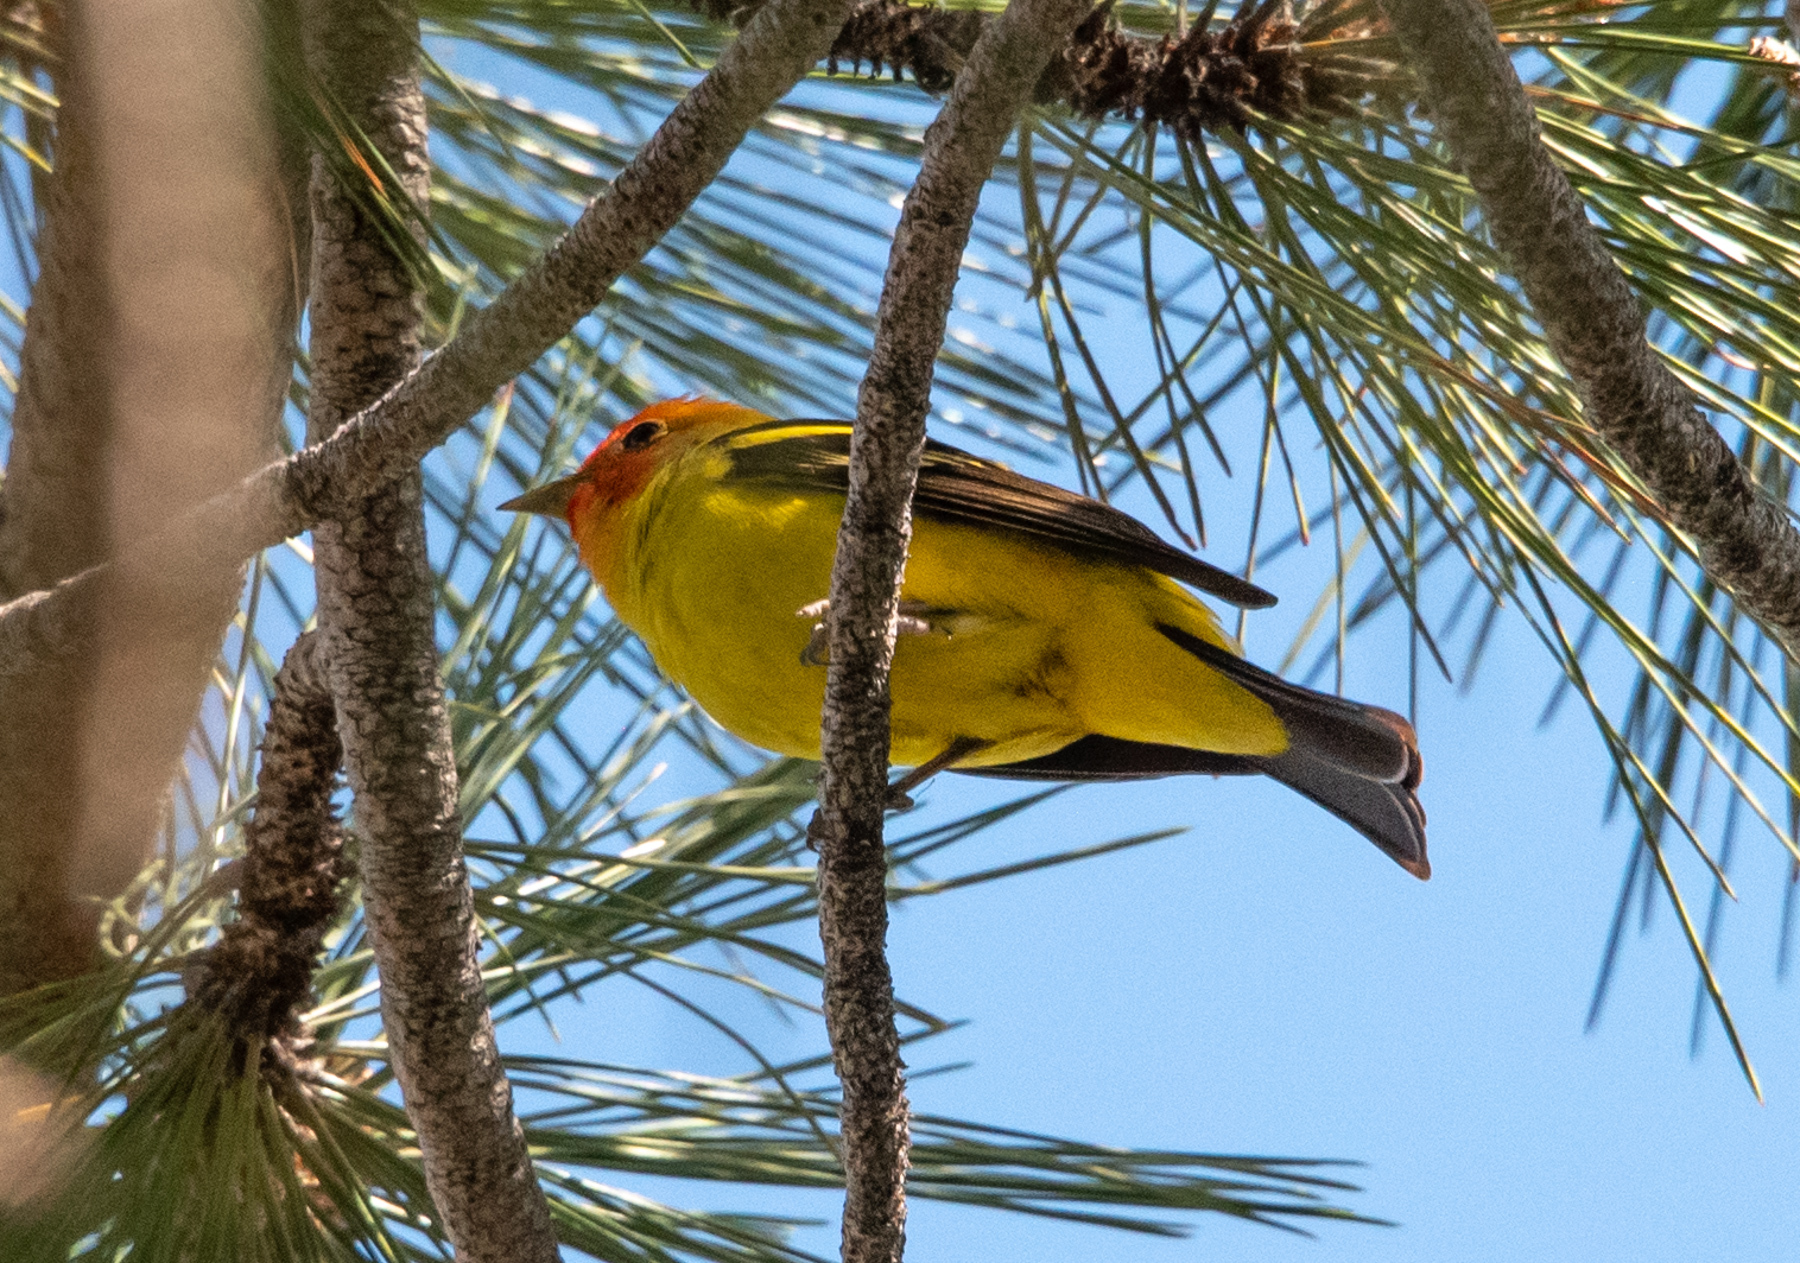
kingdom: Animalia
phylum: Chordata
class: Aves
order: Passeriformes
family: Cardinalidae
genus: Piranga
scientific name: Piranga ludoviciana
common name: Western tanager
